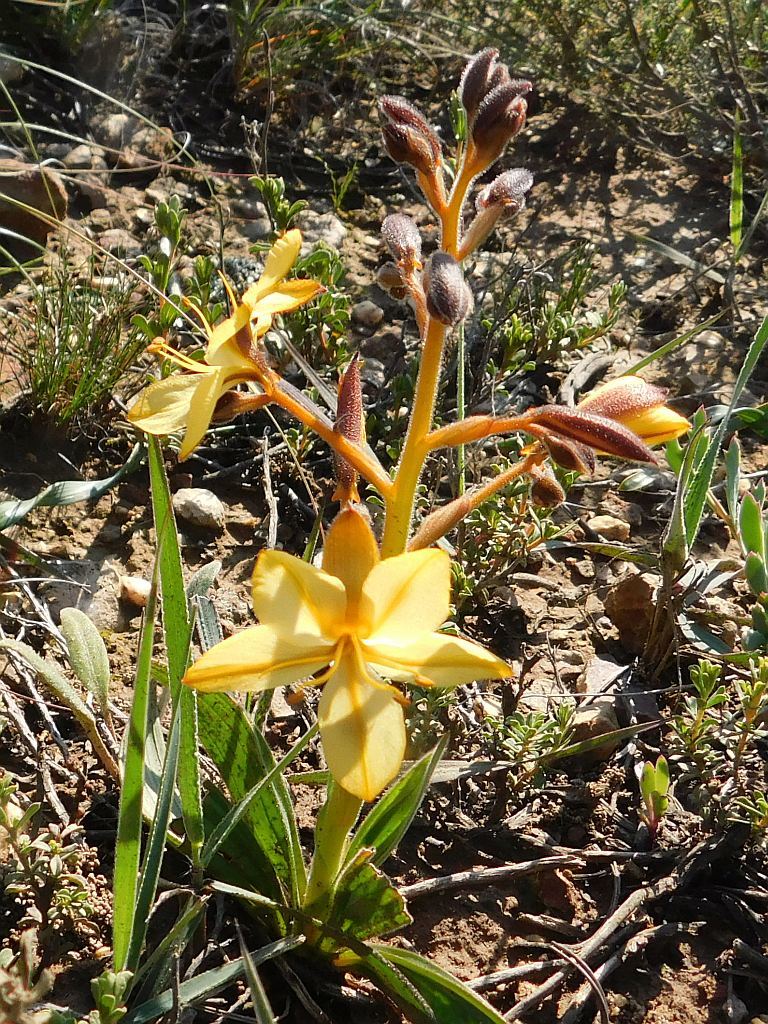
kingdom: Plantae
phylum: Tracheophyta
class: Liliopsida
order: Commelinales
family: Haemodoraceae
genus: Wachendorfia
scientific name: Wachendorfia paniculata
